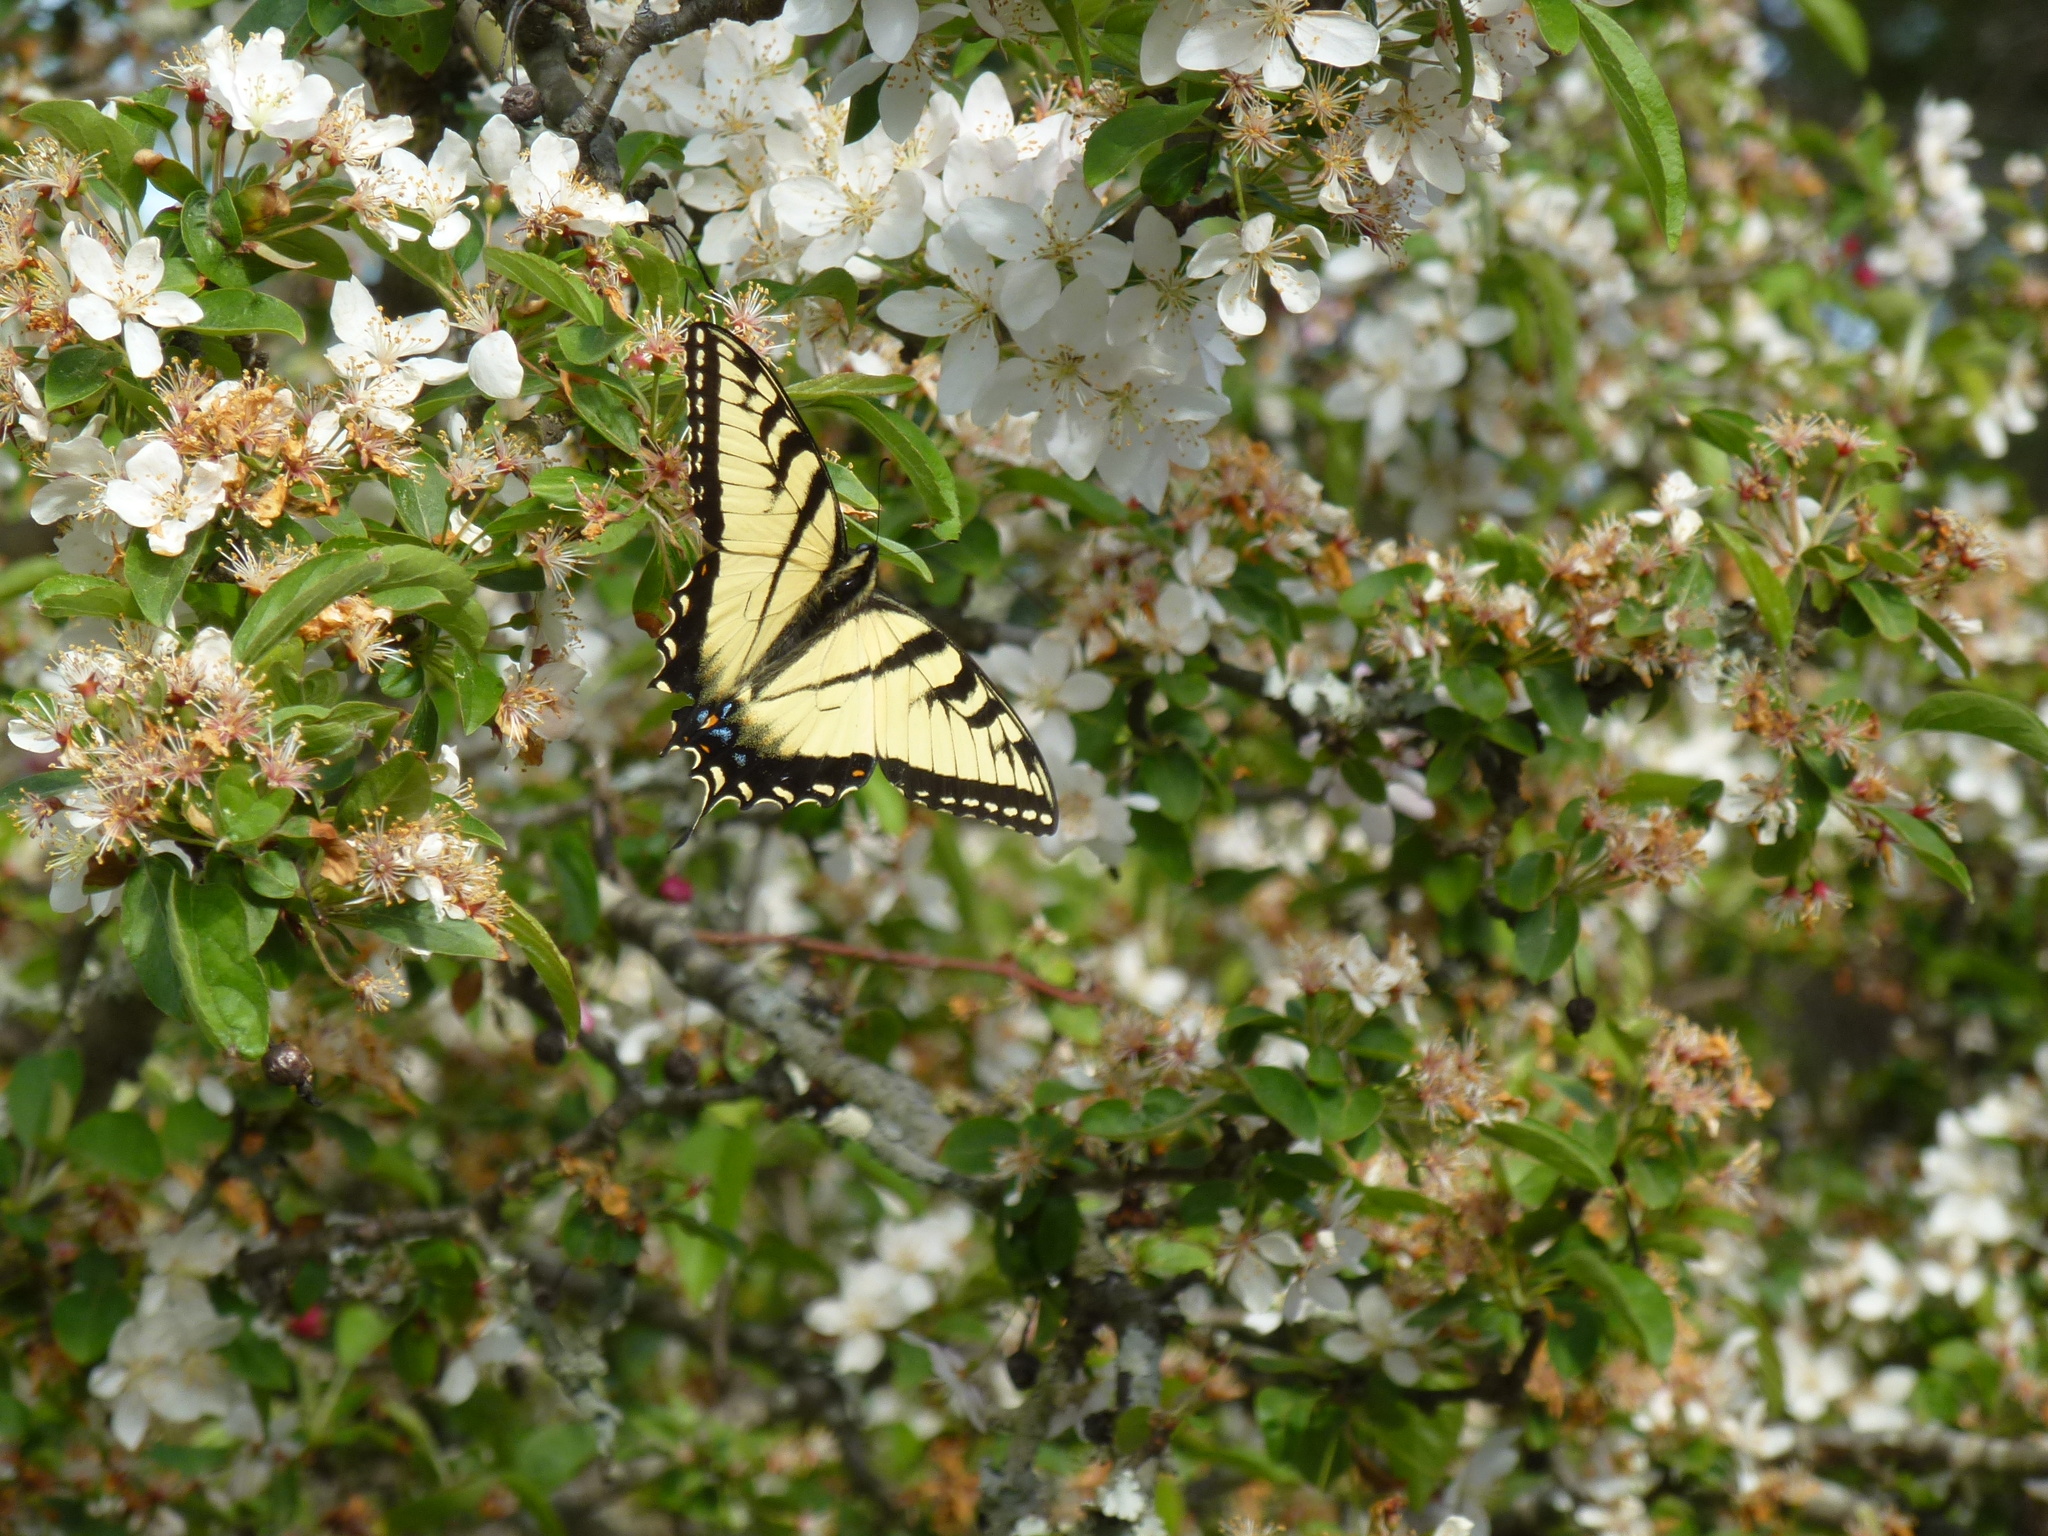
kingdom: Animalia
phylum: Arthropoda
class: Insecta
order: Lepidoptera
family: Papilionidae
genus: Papilio
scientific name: Papilio glaucus
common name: Tiger swallowtail
